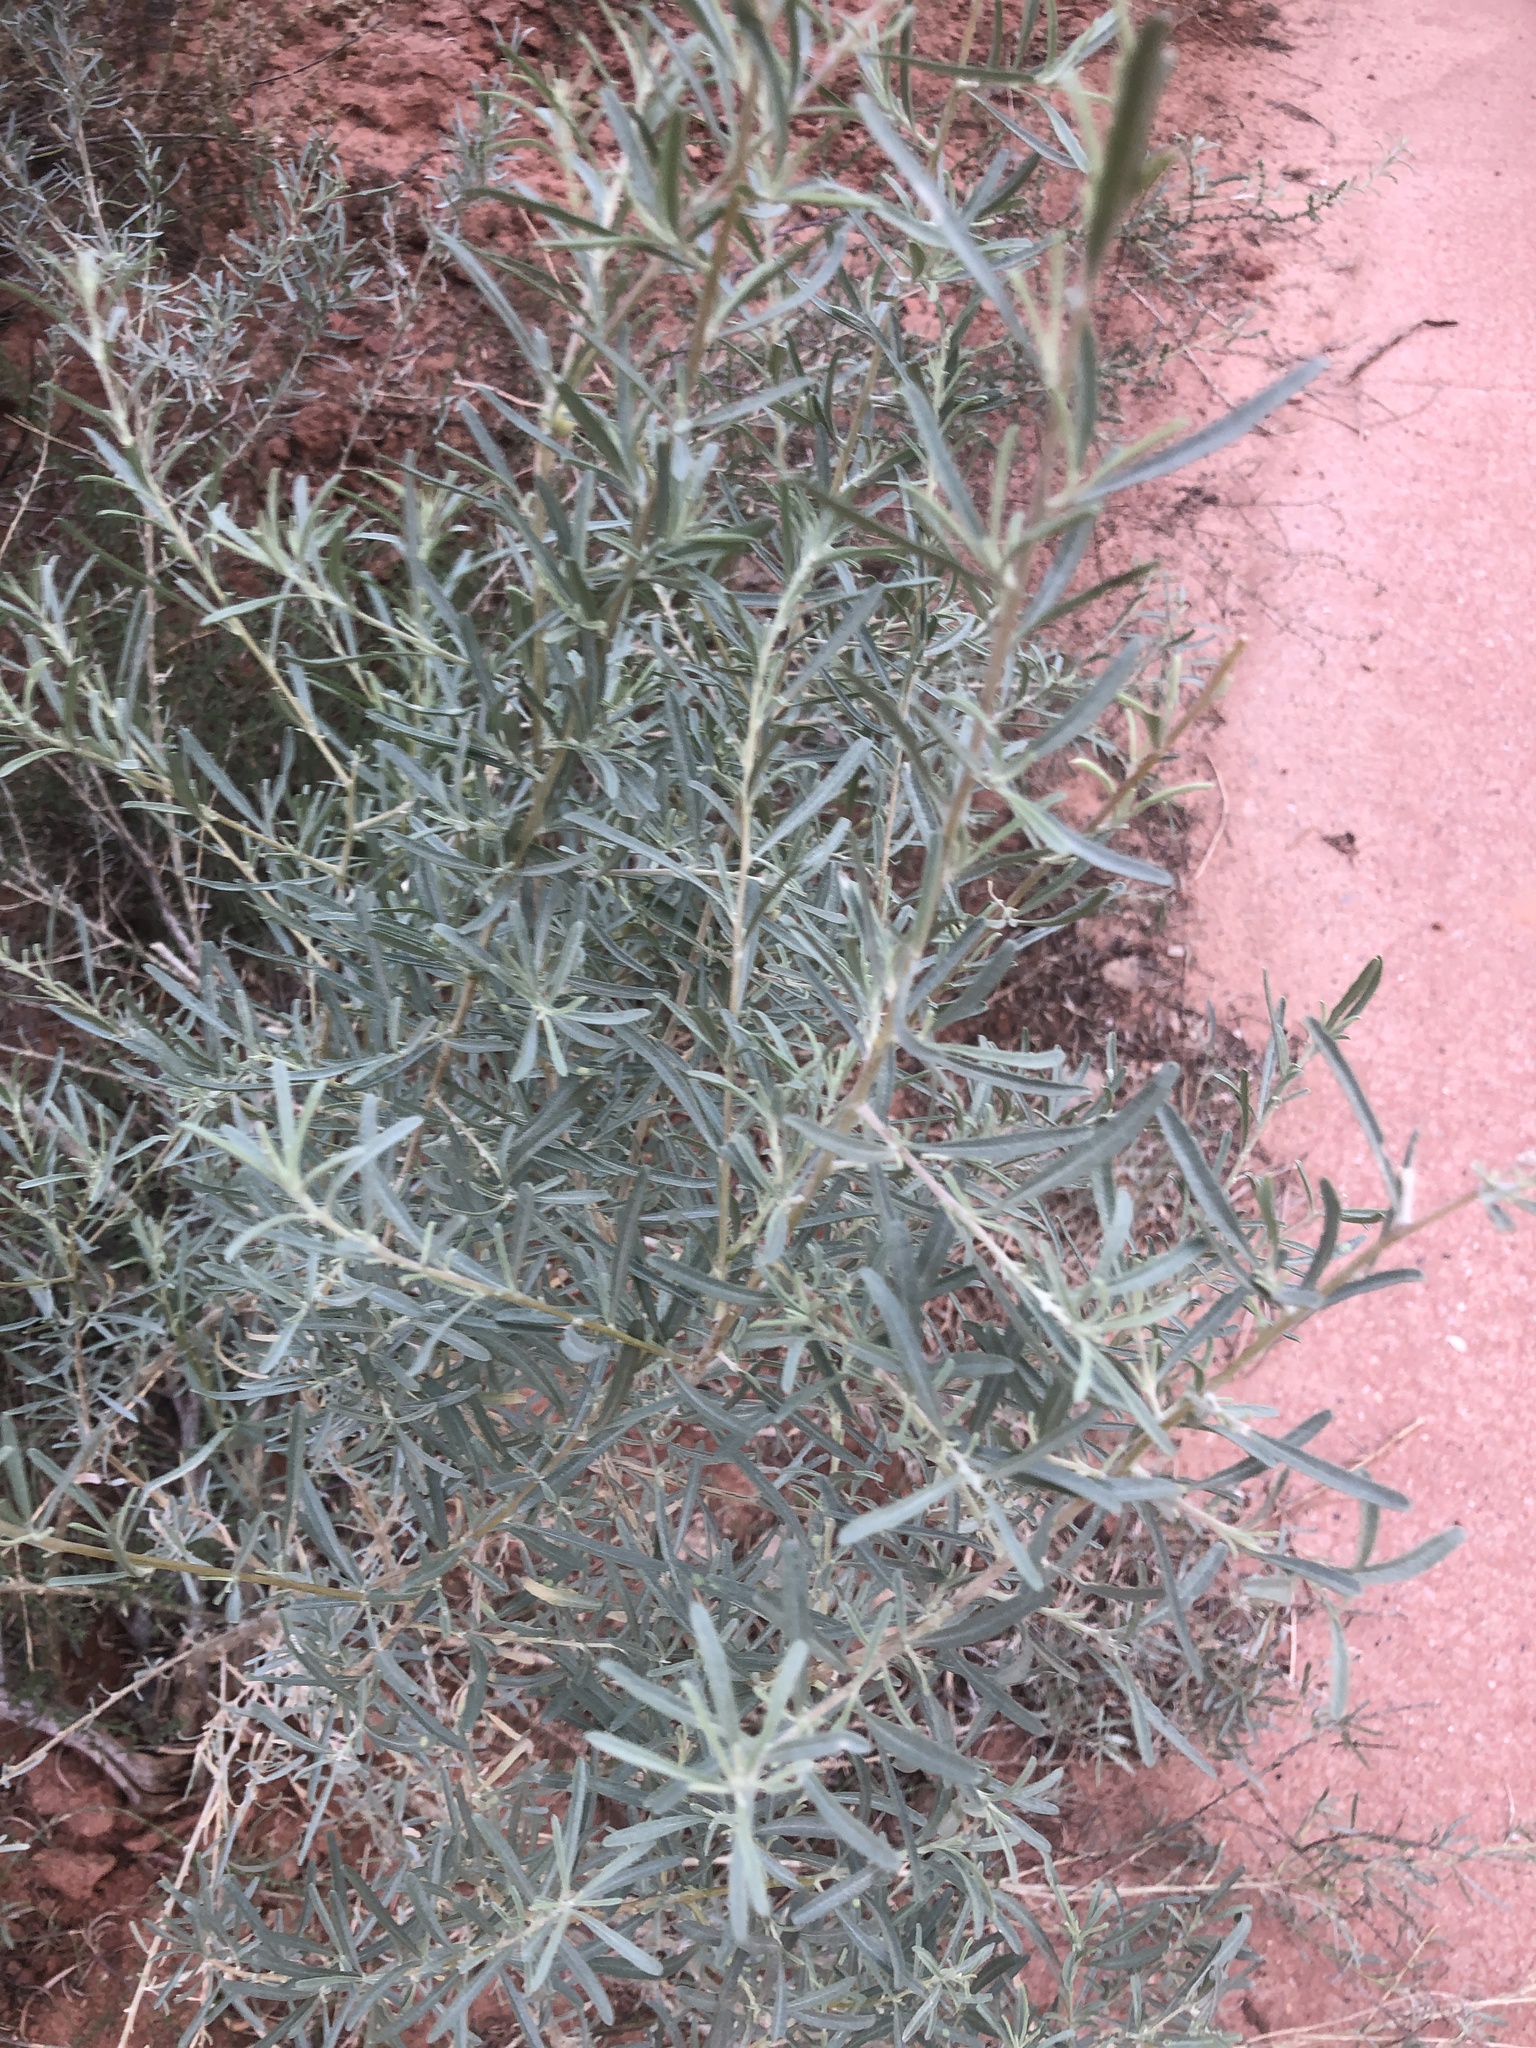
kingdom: Plantae
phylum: Tracheophyta
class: Magnoliopsida
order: Caryophyllales
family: Amaranthaceae
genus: Atriplex
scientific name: Atriplex canescens
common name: Four-wing saltbush
